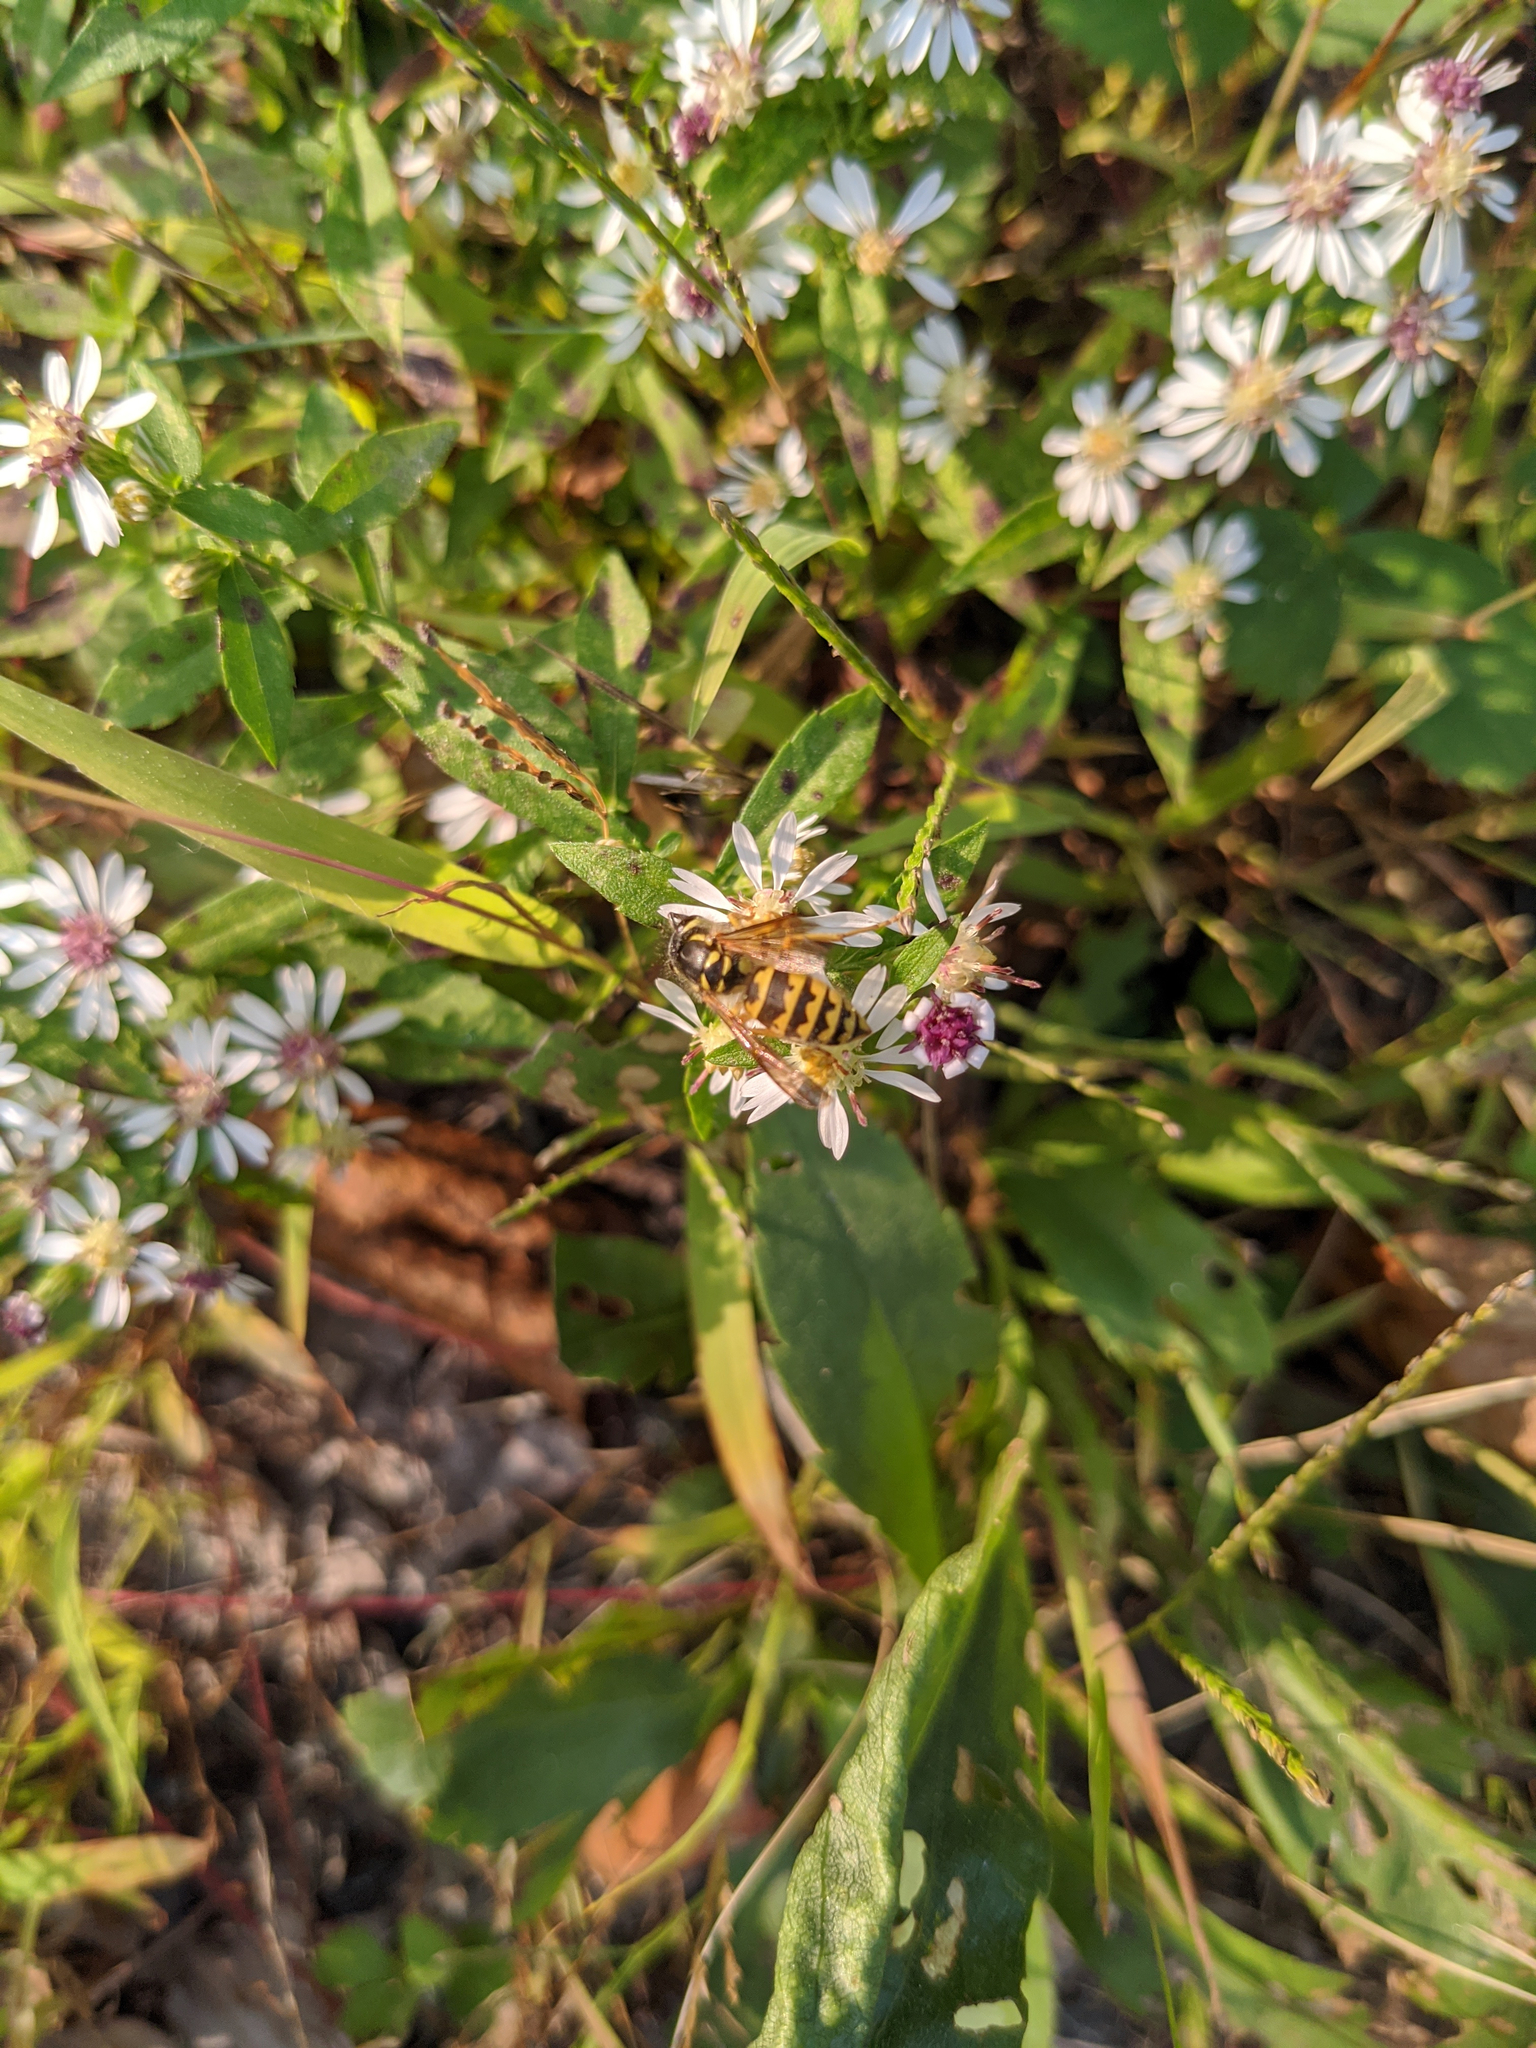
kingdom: Animalia
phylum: Arthropoda
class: Insecta
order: Hymenoptera
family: Vespidae
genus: Vespula
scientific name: Vespula flavopilosa
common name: Downy yellowjacket
